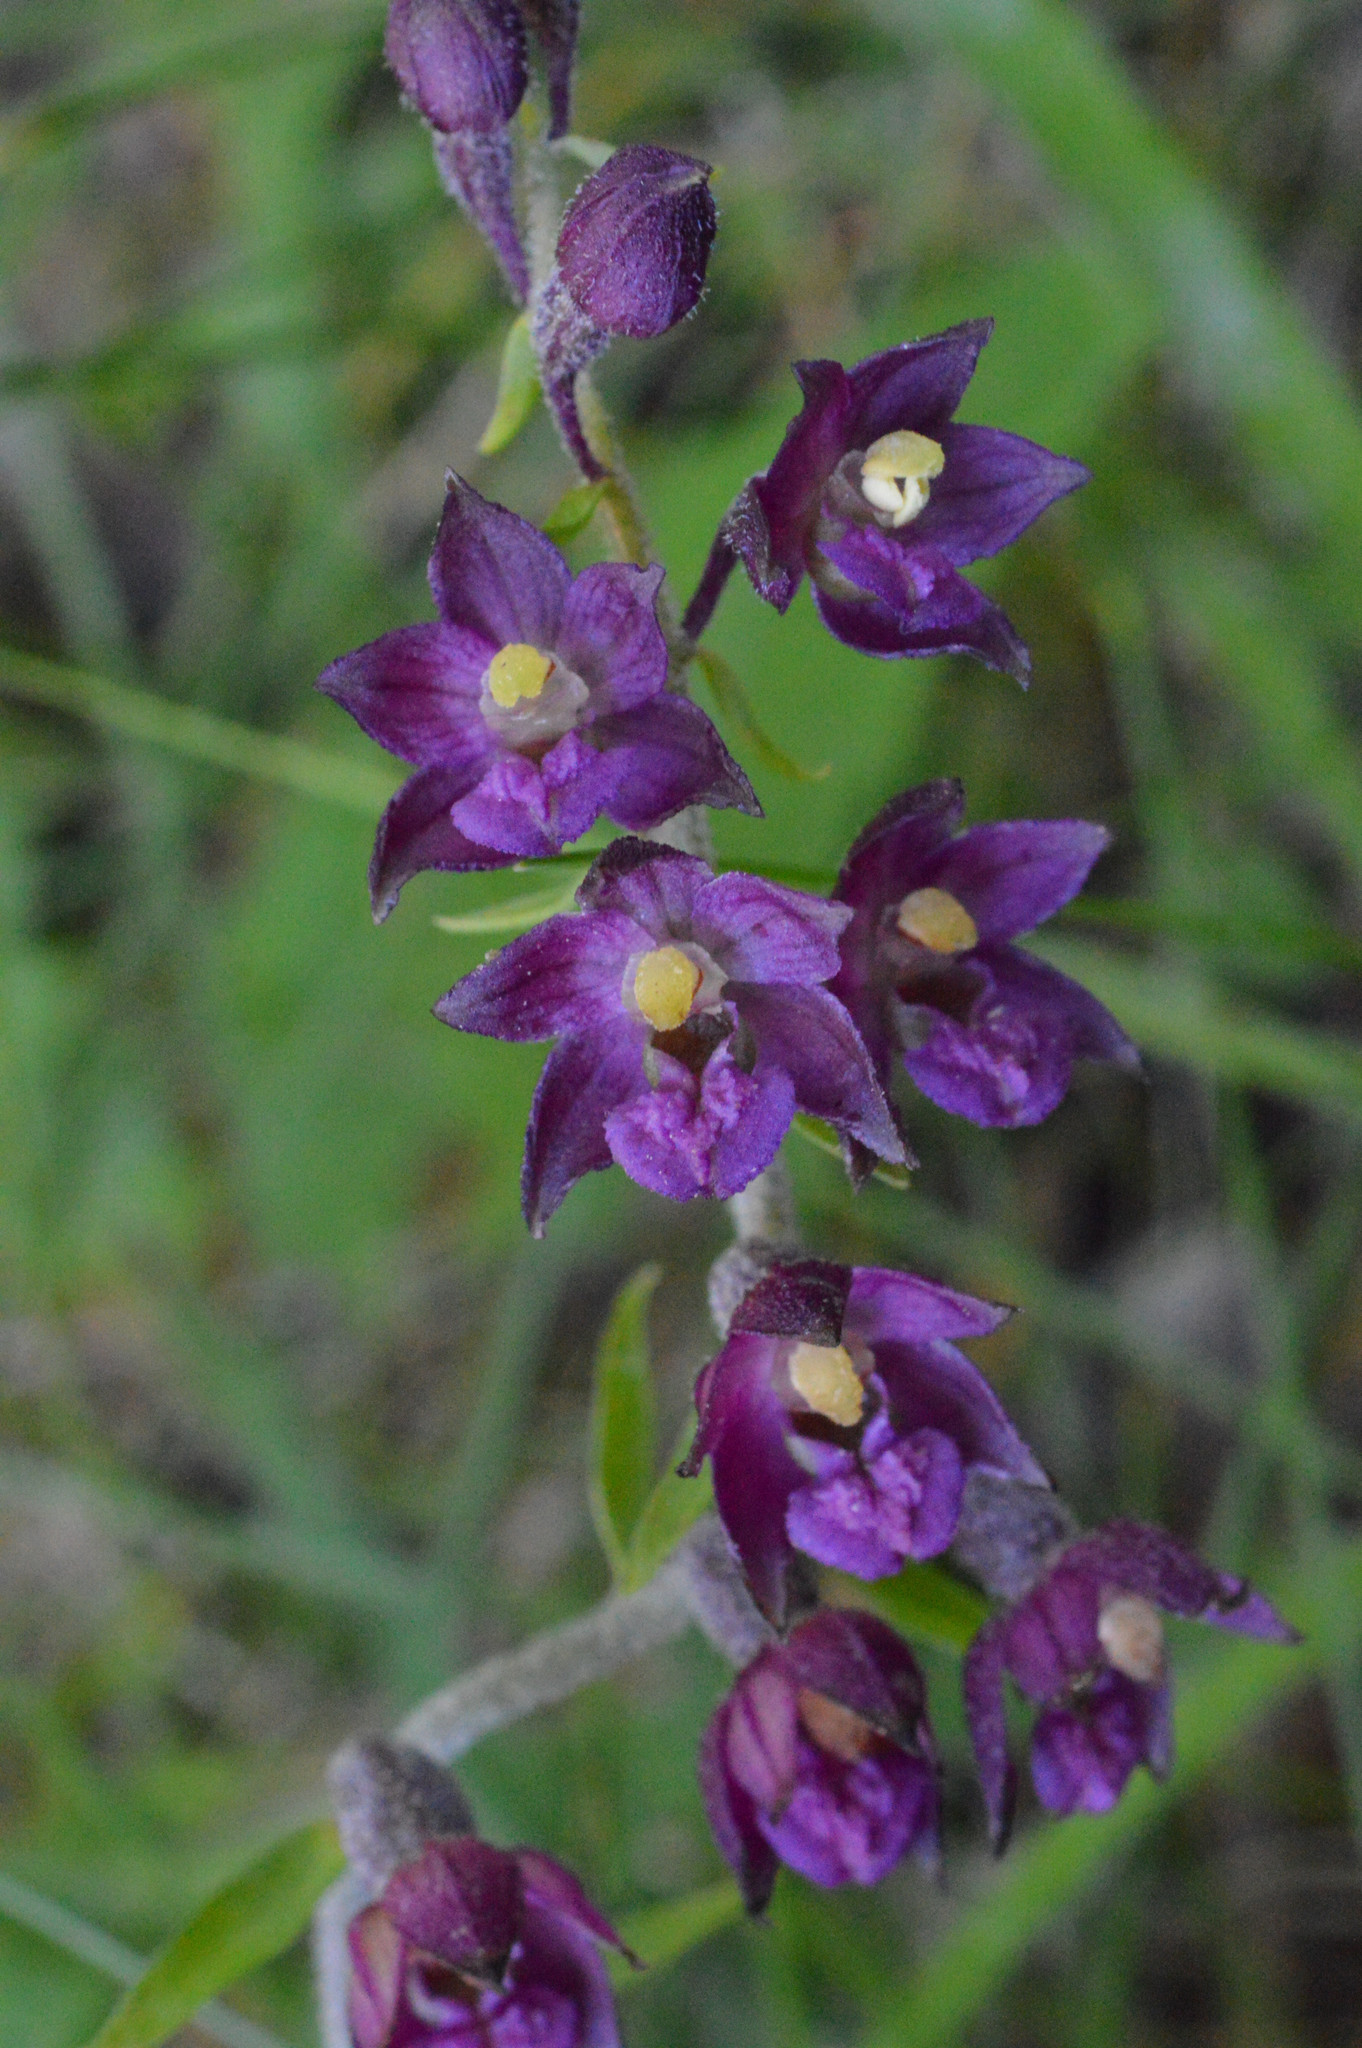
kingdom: Plantae
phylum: Tracheophyta
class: Liliopsida
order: Asparagales
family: Orchidaceae
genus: Epipactis
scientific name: Epipactis atrorubens
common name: Dark-red helleborine
